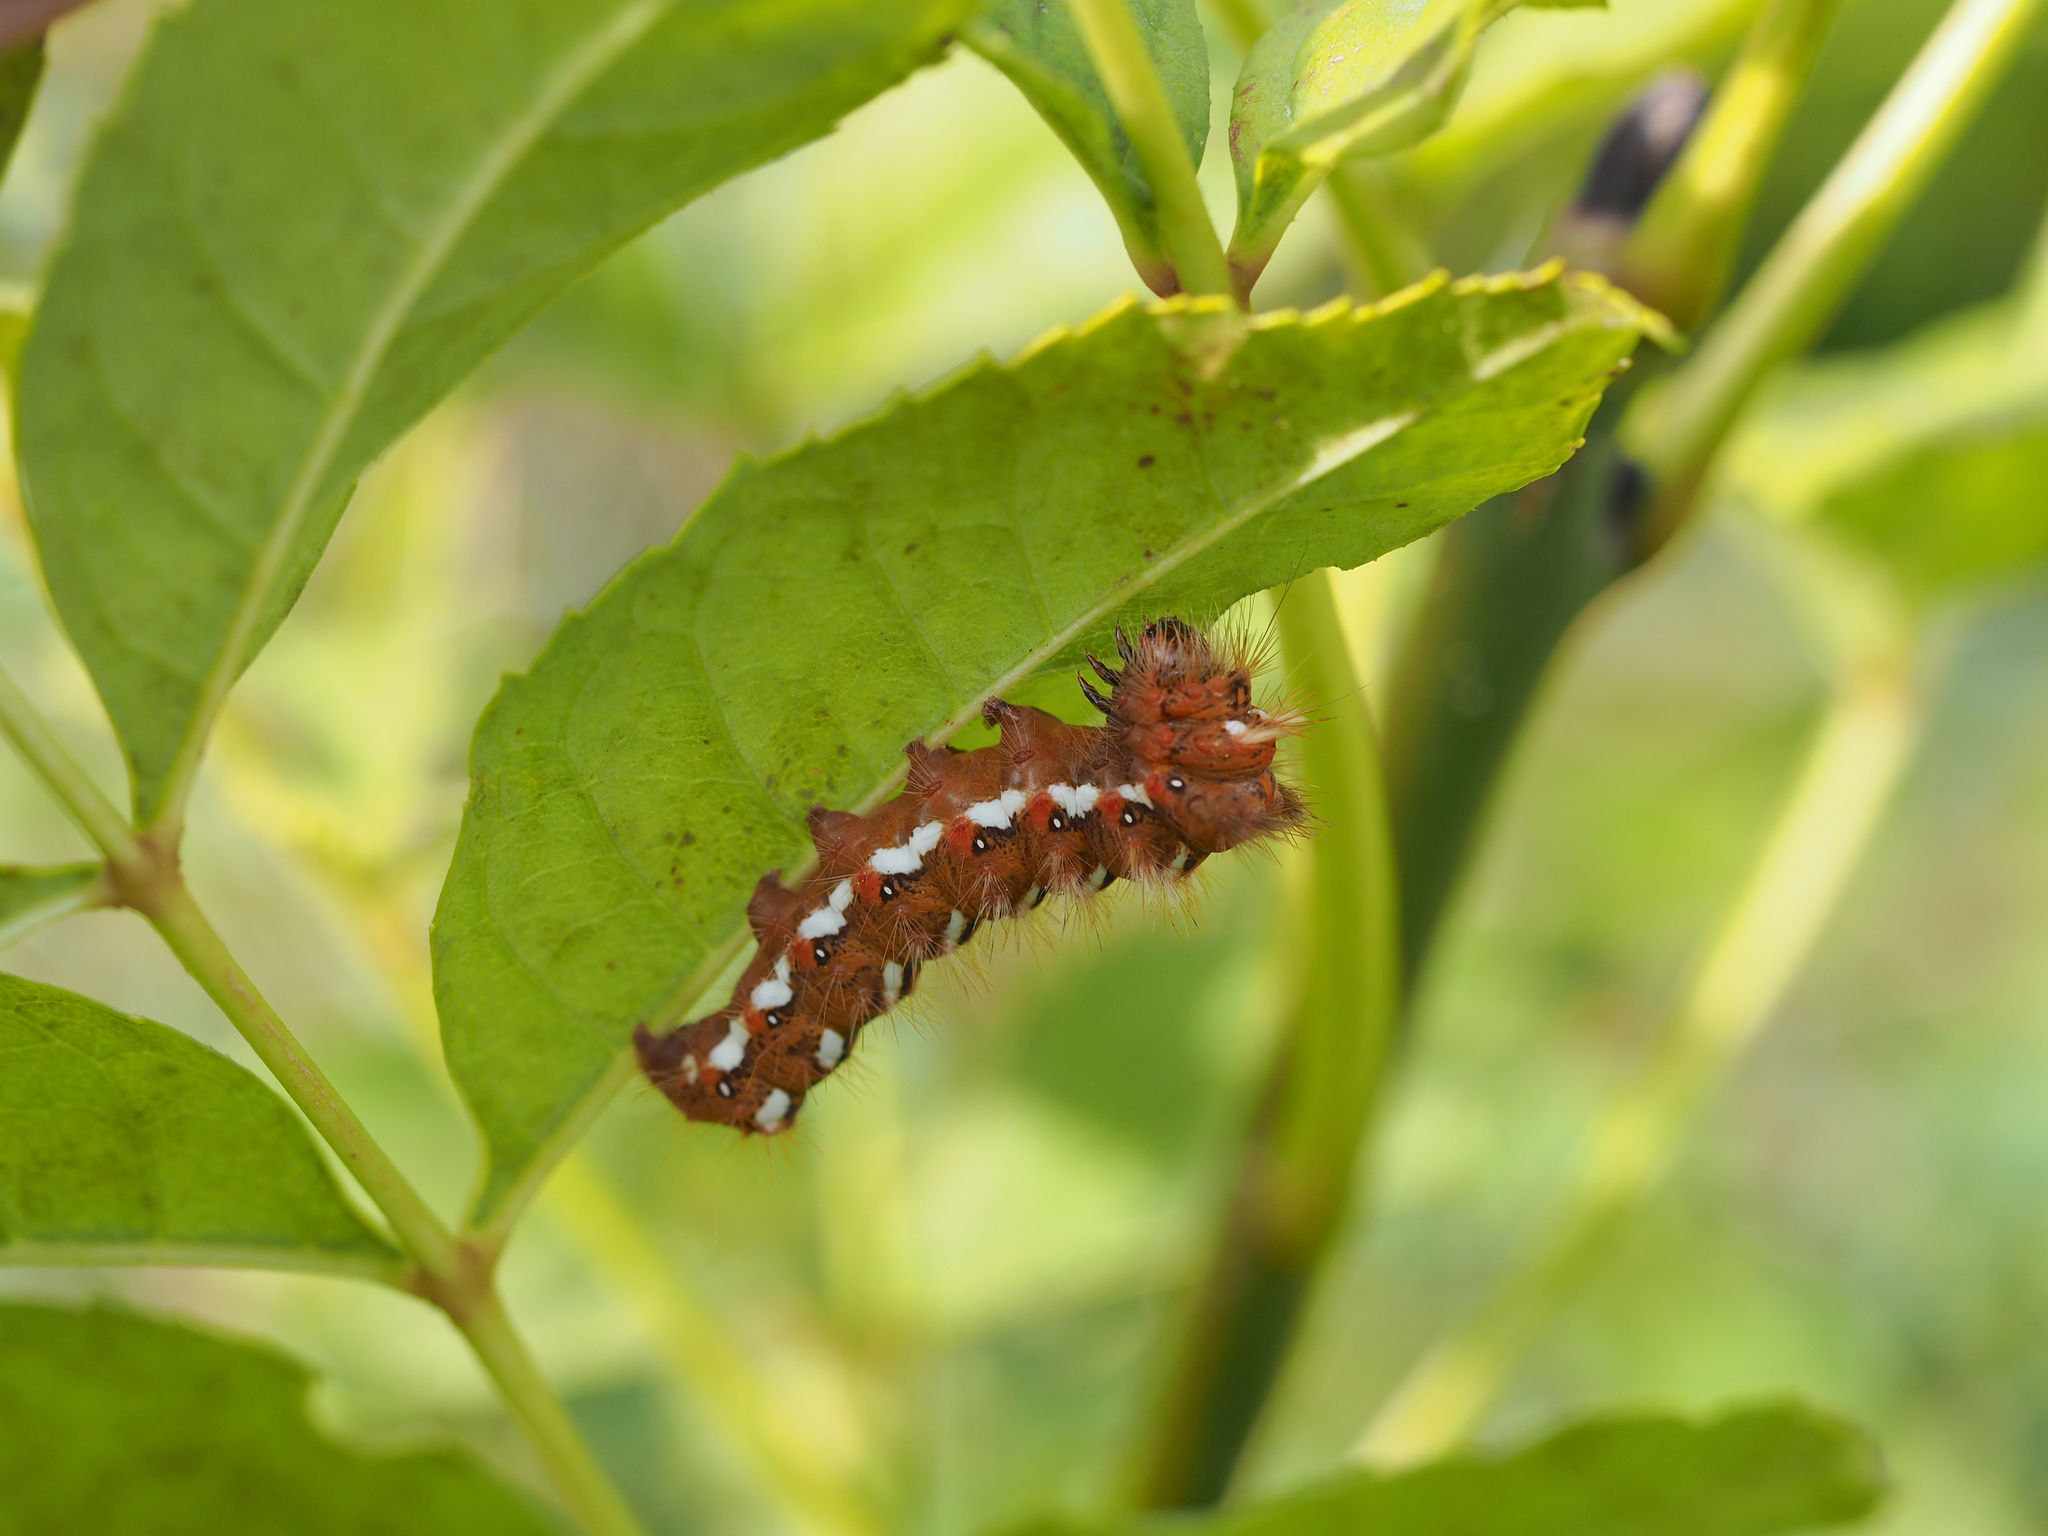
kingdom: Animalia
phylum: Arthropoda
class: Insecta
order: Lepidoptera
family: Noctuidae
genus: Acronicta
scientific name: Acronicta rumicis
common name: Knot grass
